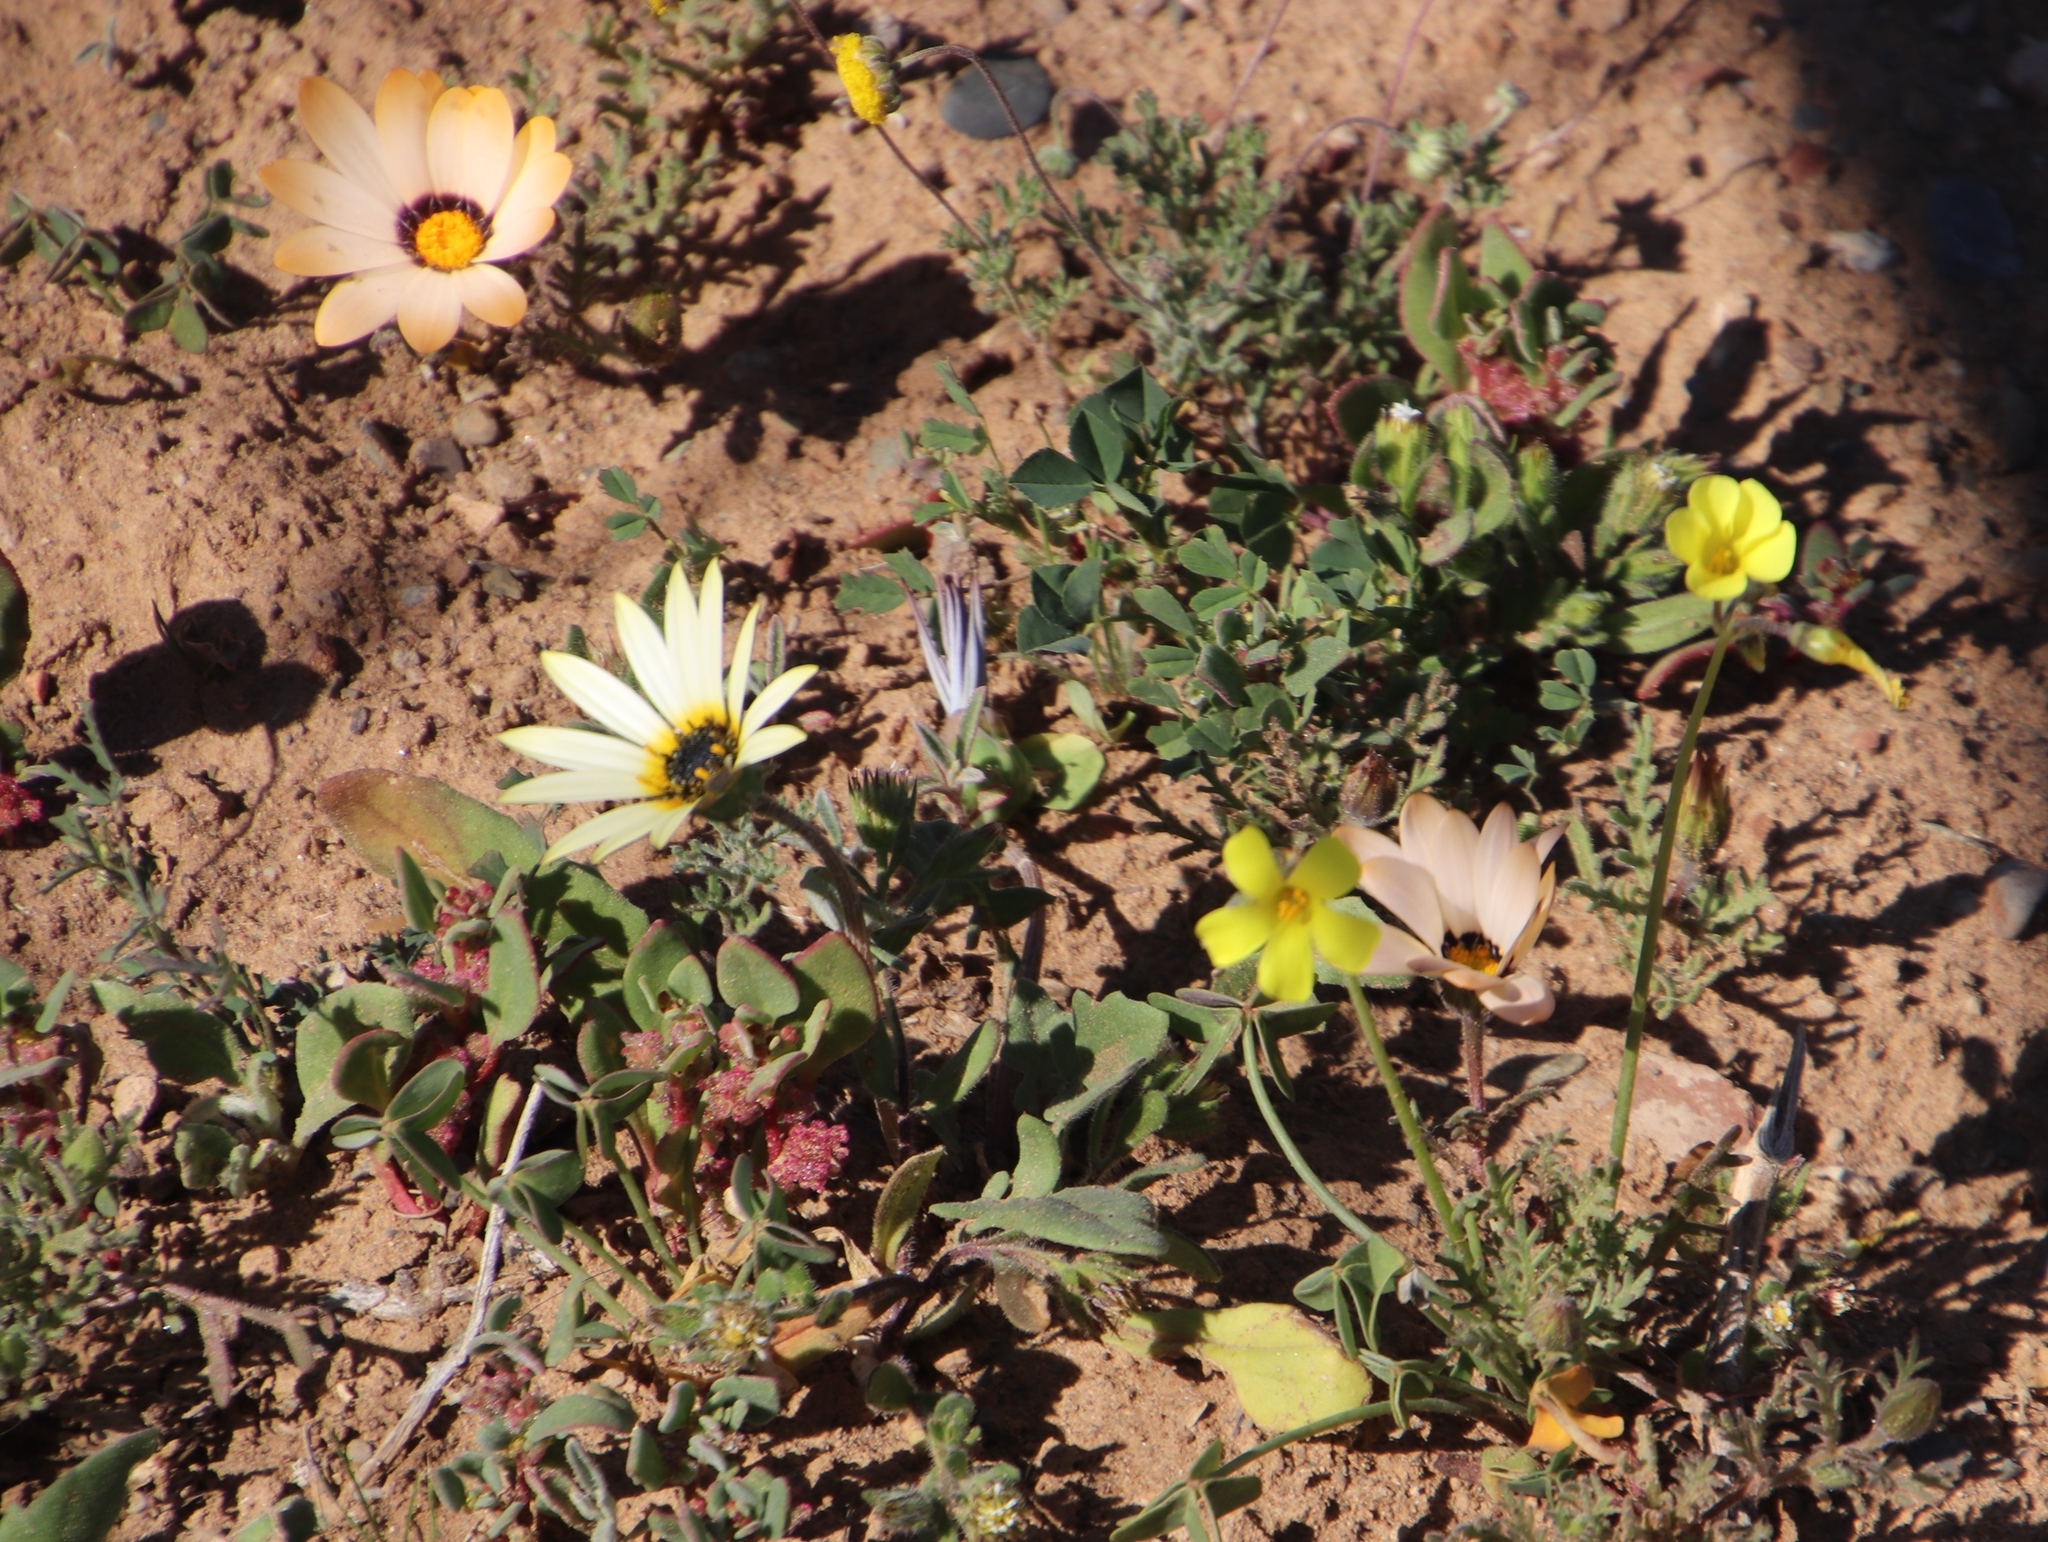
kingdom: Plantae
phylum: Tracheophyta
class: Magnoliopsida
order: Asterales
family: Asteraceae
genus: Dimorphotheca
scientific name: Dimorphotheca pinnata
